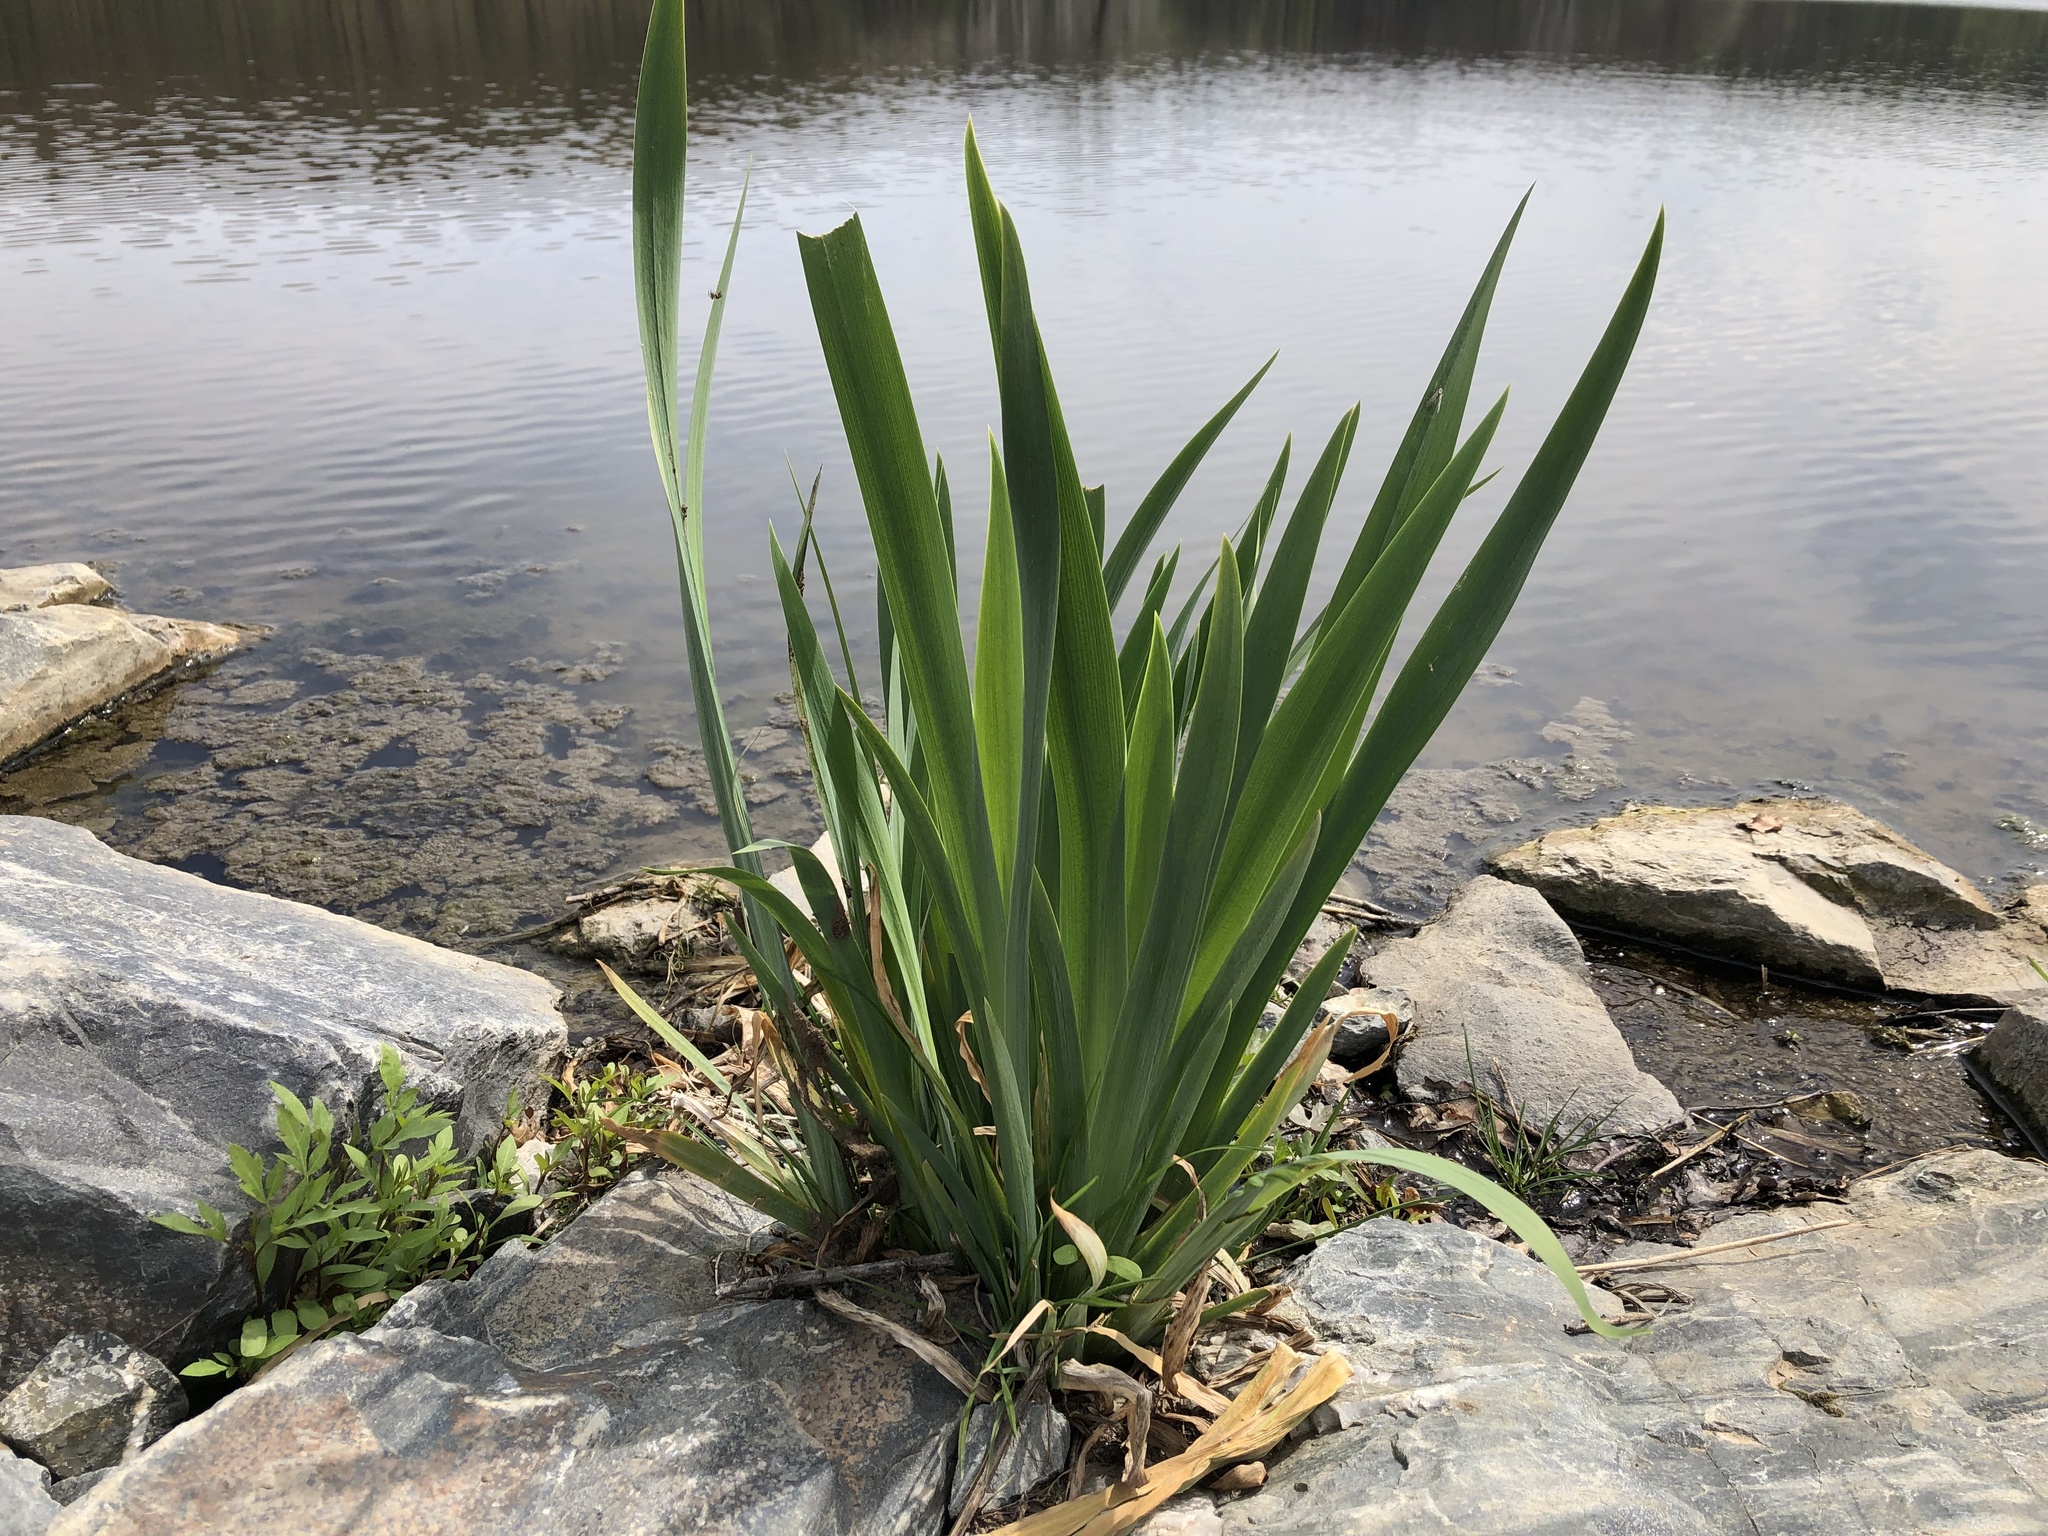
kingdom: Plantae
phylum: Tracheophyta
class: Liliopsida
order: Asparagales
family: Iridaceae
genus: Iris
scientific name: Iris pseudacorus
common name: Yellow flag
